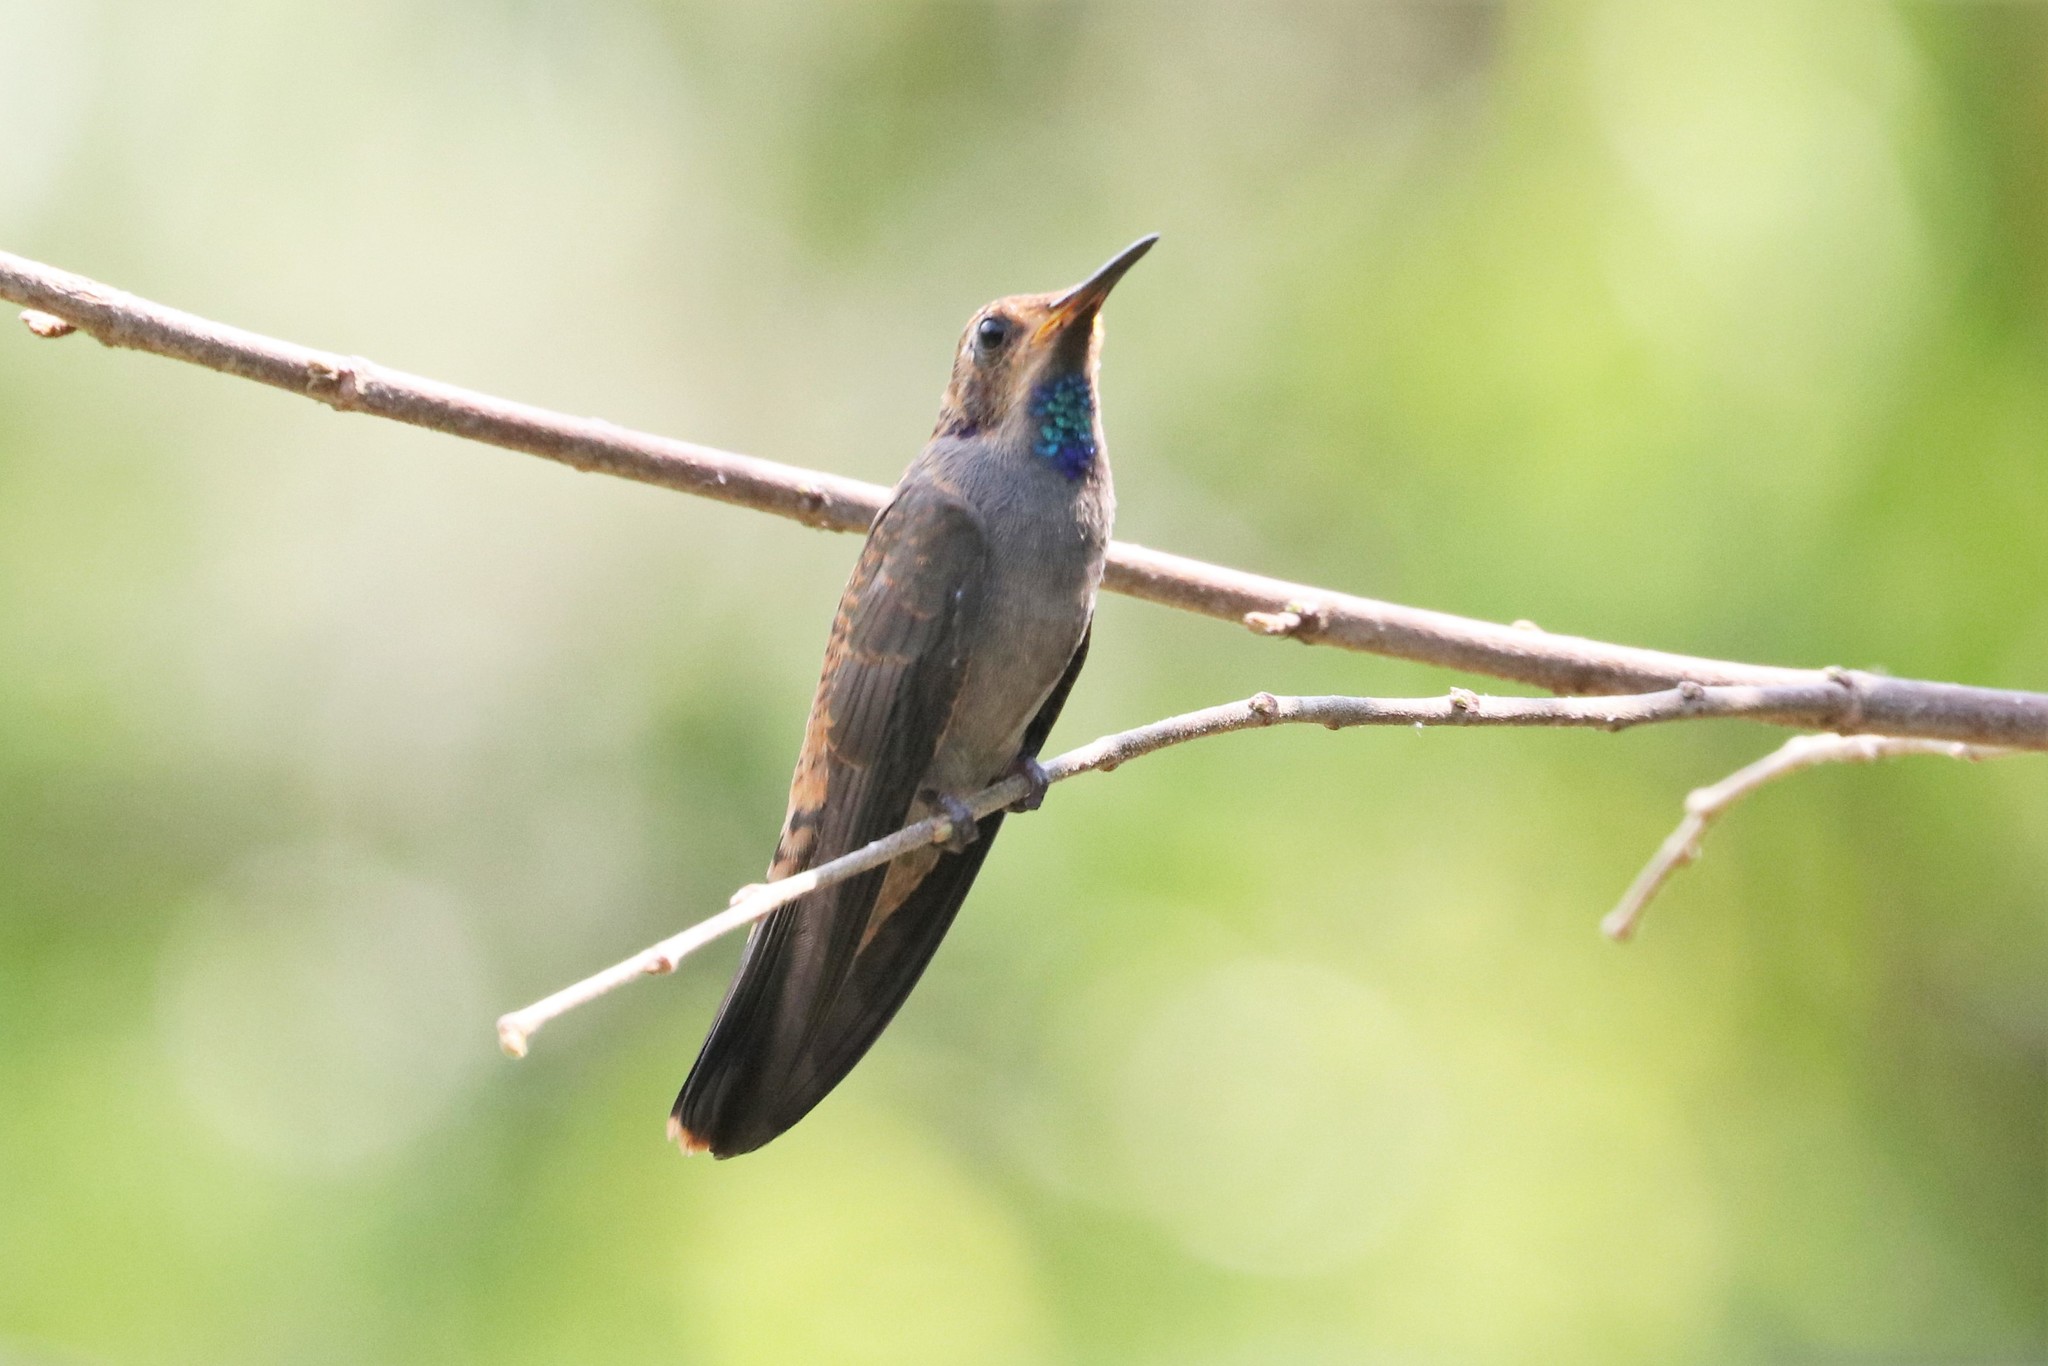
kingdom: Animalia
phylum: Chordata
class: Aves
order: Apodiformes
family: Trochilidae
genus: Colibri
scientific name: Colibri delphinae
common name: Brown violetear
